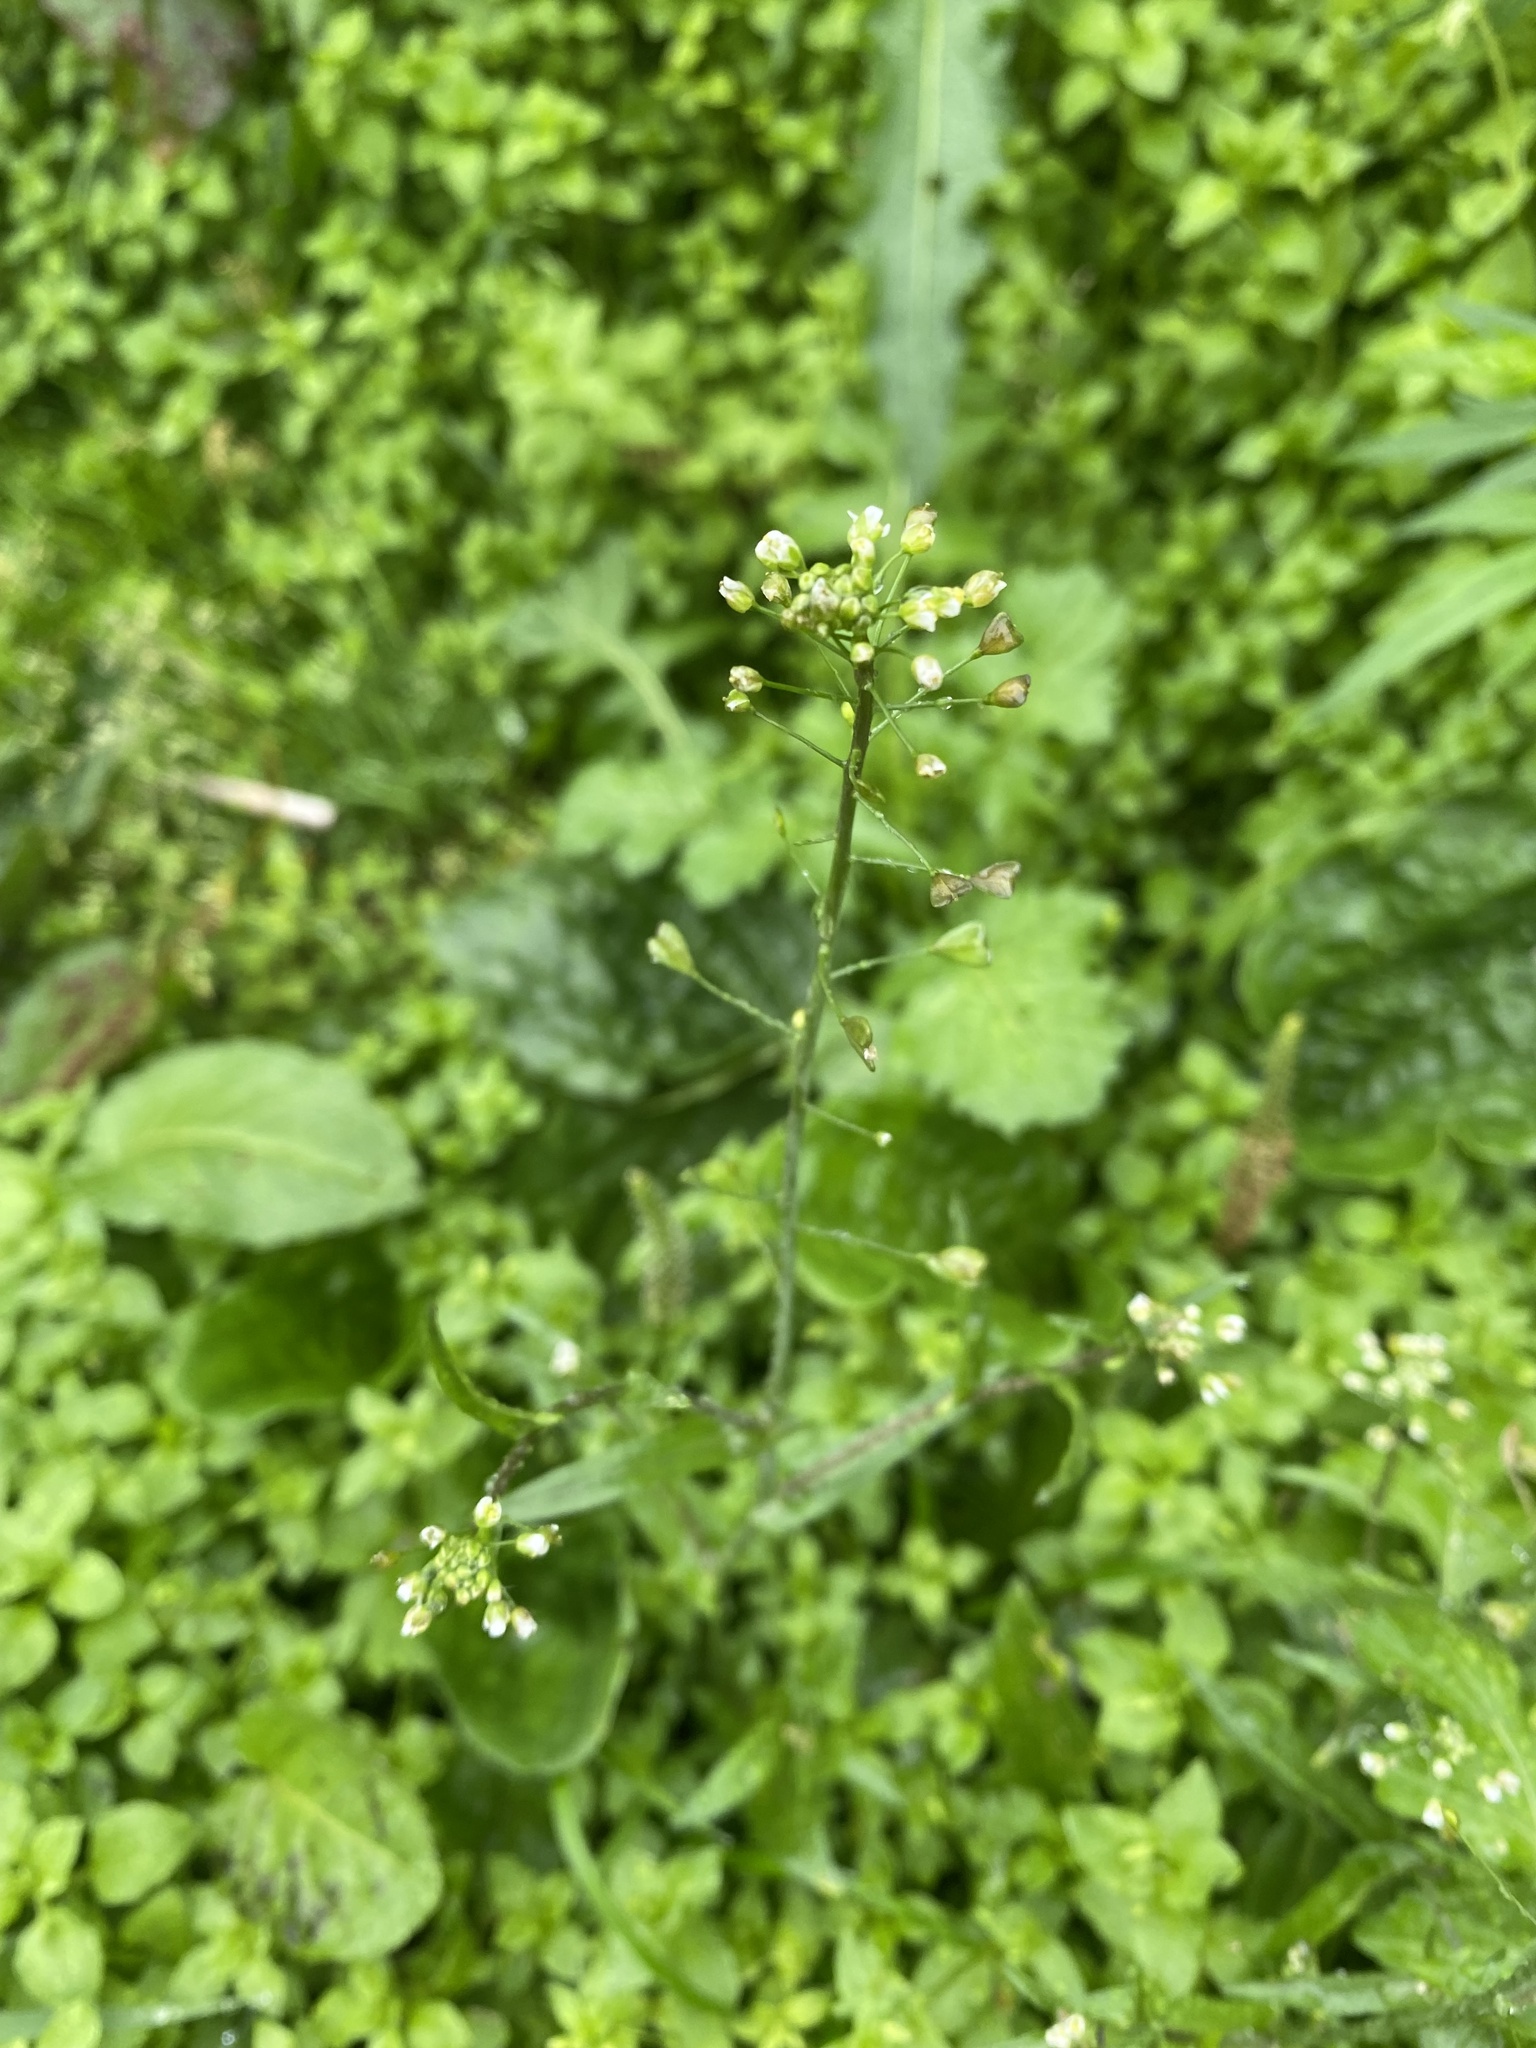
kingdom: Plantae
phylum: Tracheophyta
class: Magnoliopsida
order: Brassicales
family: Brassicaceae
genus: Capsella
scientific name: Capsella bursa-pastoris
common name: Shepherd's purse
